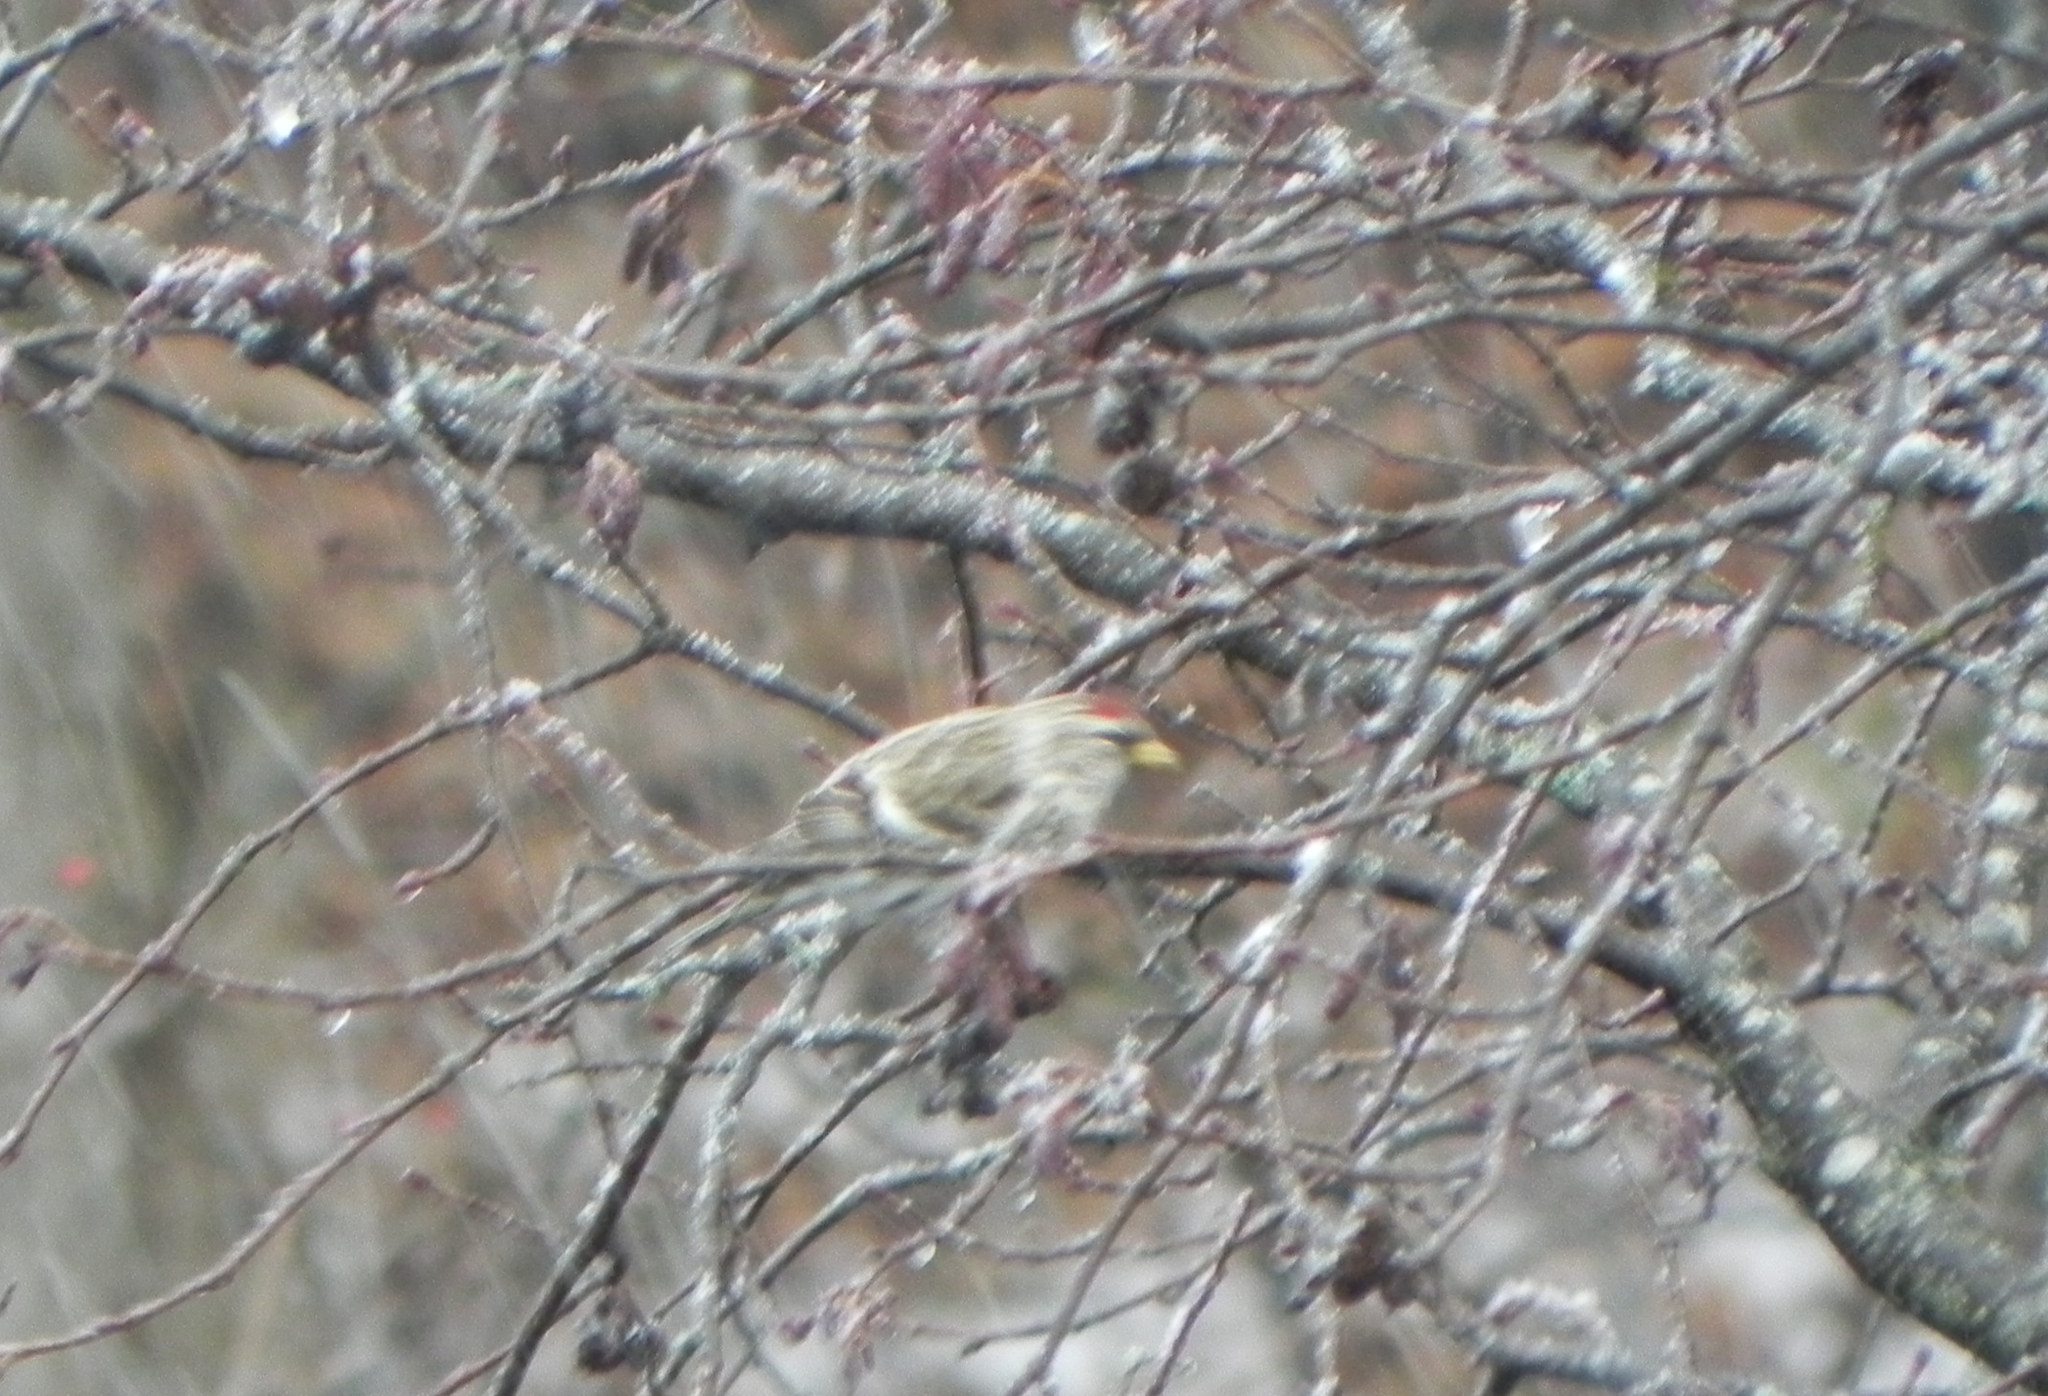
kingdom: Animalia
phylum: Chordata
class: Aves
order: Passeriformes
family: Fringillidae
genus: Acanthis
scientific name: Acanthis flammea
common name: Common redpoll
